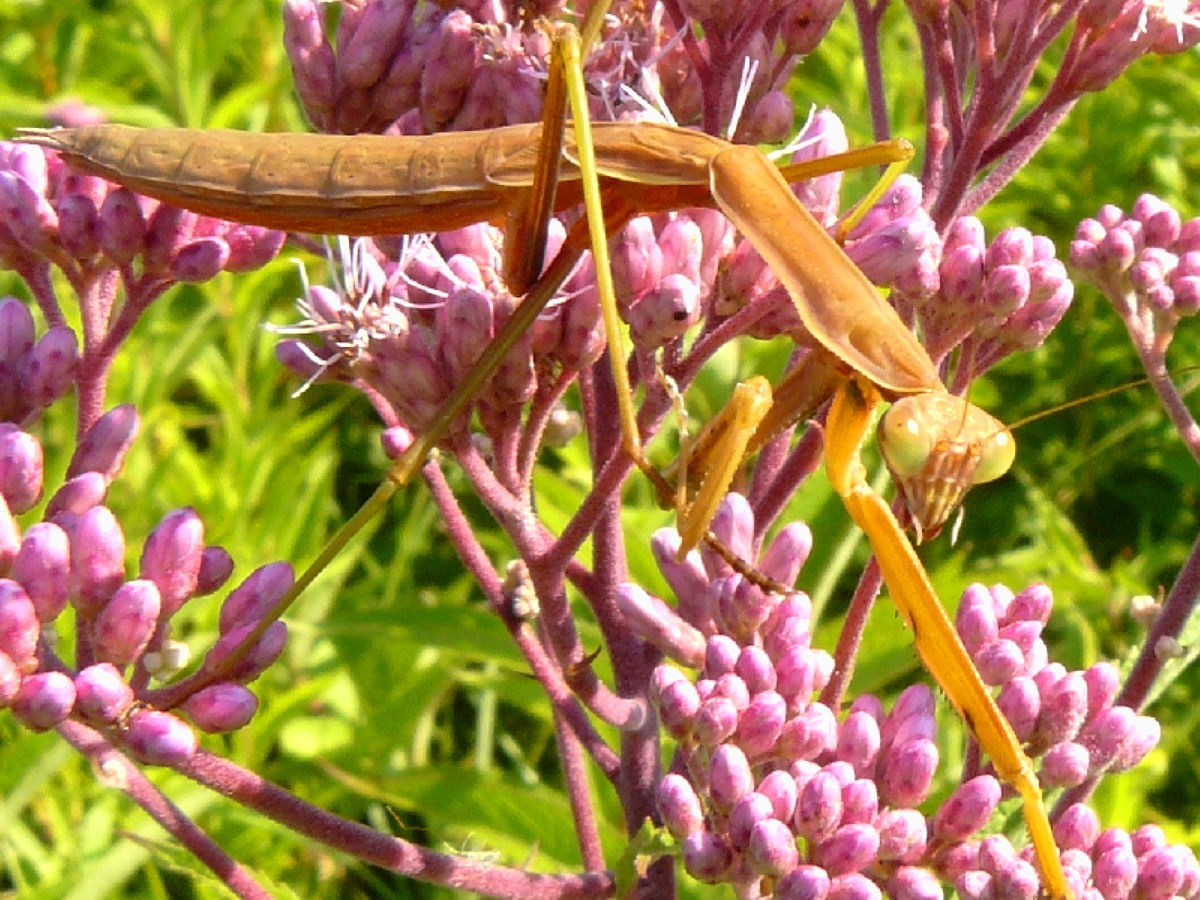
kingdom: Animalia
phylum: Arthropoda
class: Insecta
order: Mantodea
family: Mantidae
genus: Tenodera
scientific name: Tenodera sinensis
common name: Chinese mantis
